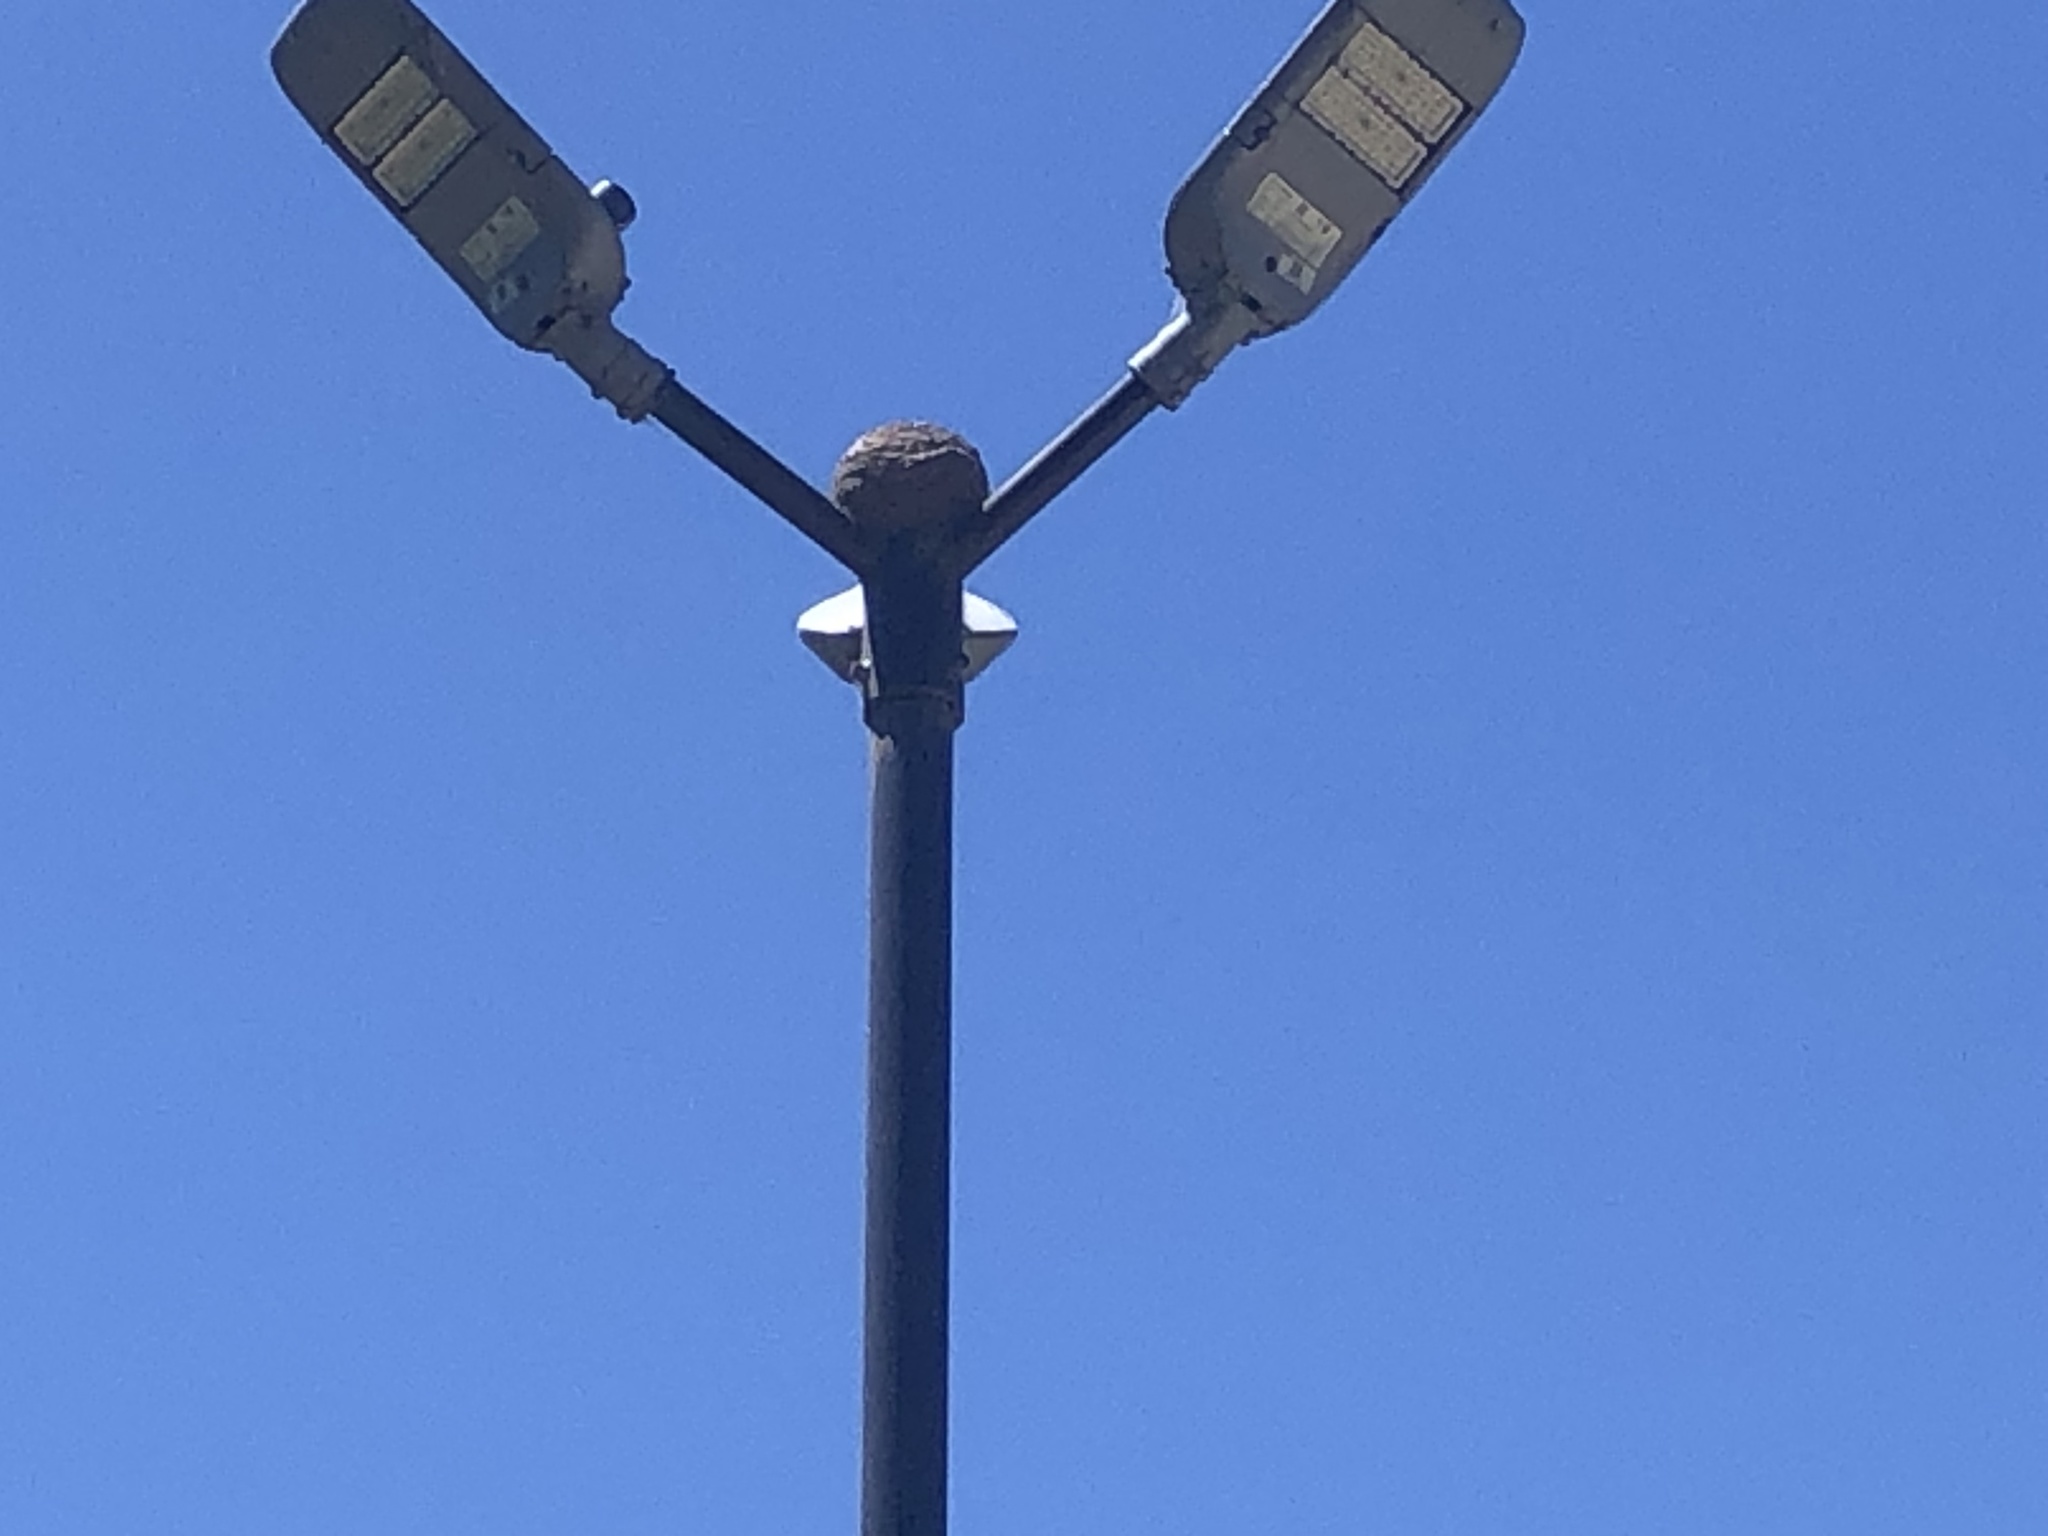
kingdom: Animalia
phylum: Chordata
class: Aves
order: Passeriformes
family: Furnariidae
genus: Furnarius
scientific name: Furnarius rufus
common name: Rufous hornero
